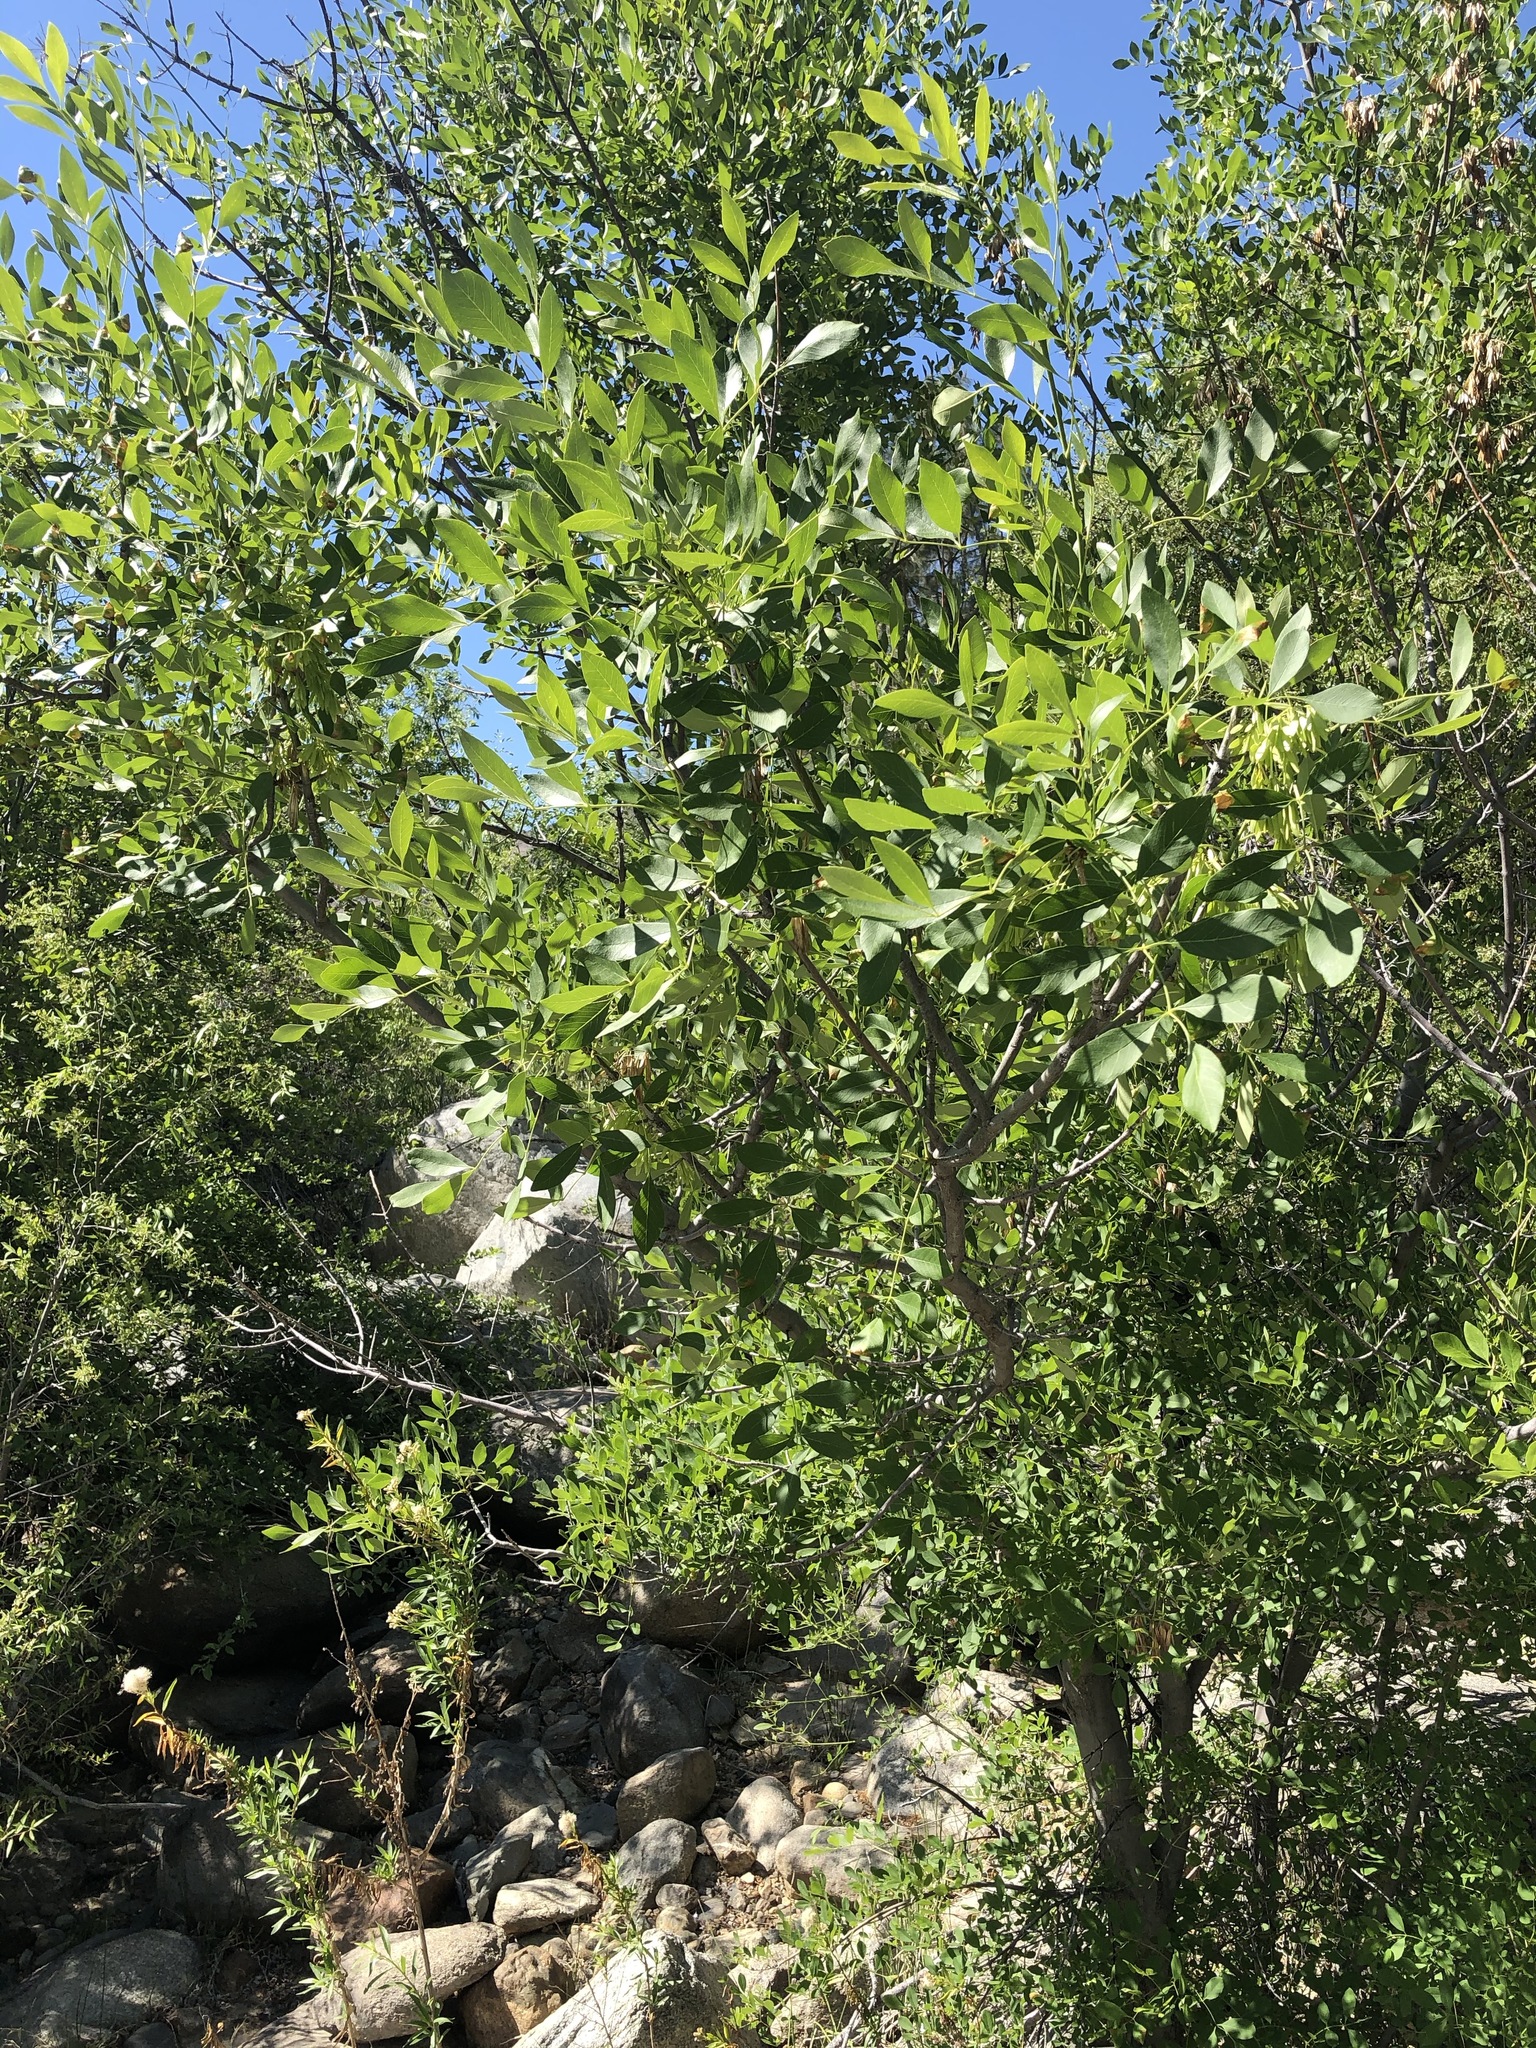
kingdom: Plantae
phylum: Tracheophyta
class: Magnoliopsida
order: Lamiales
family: Oleaceae
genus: Fraxinus
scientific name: Fraxinus velutina
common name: Arizon ash
